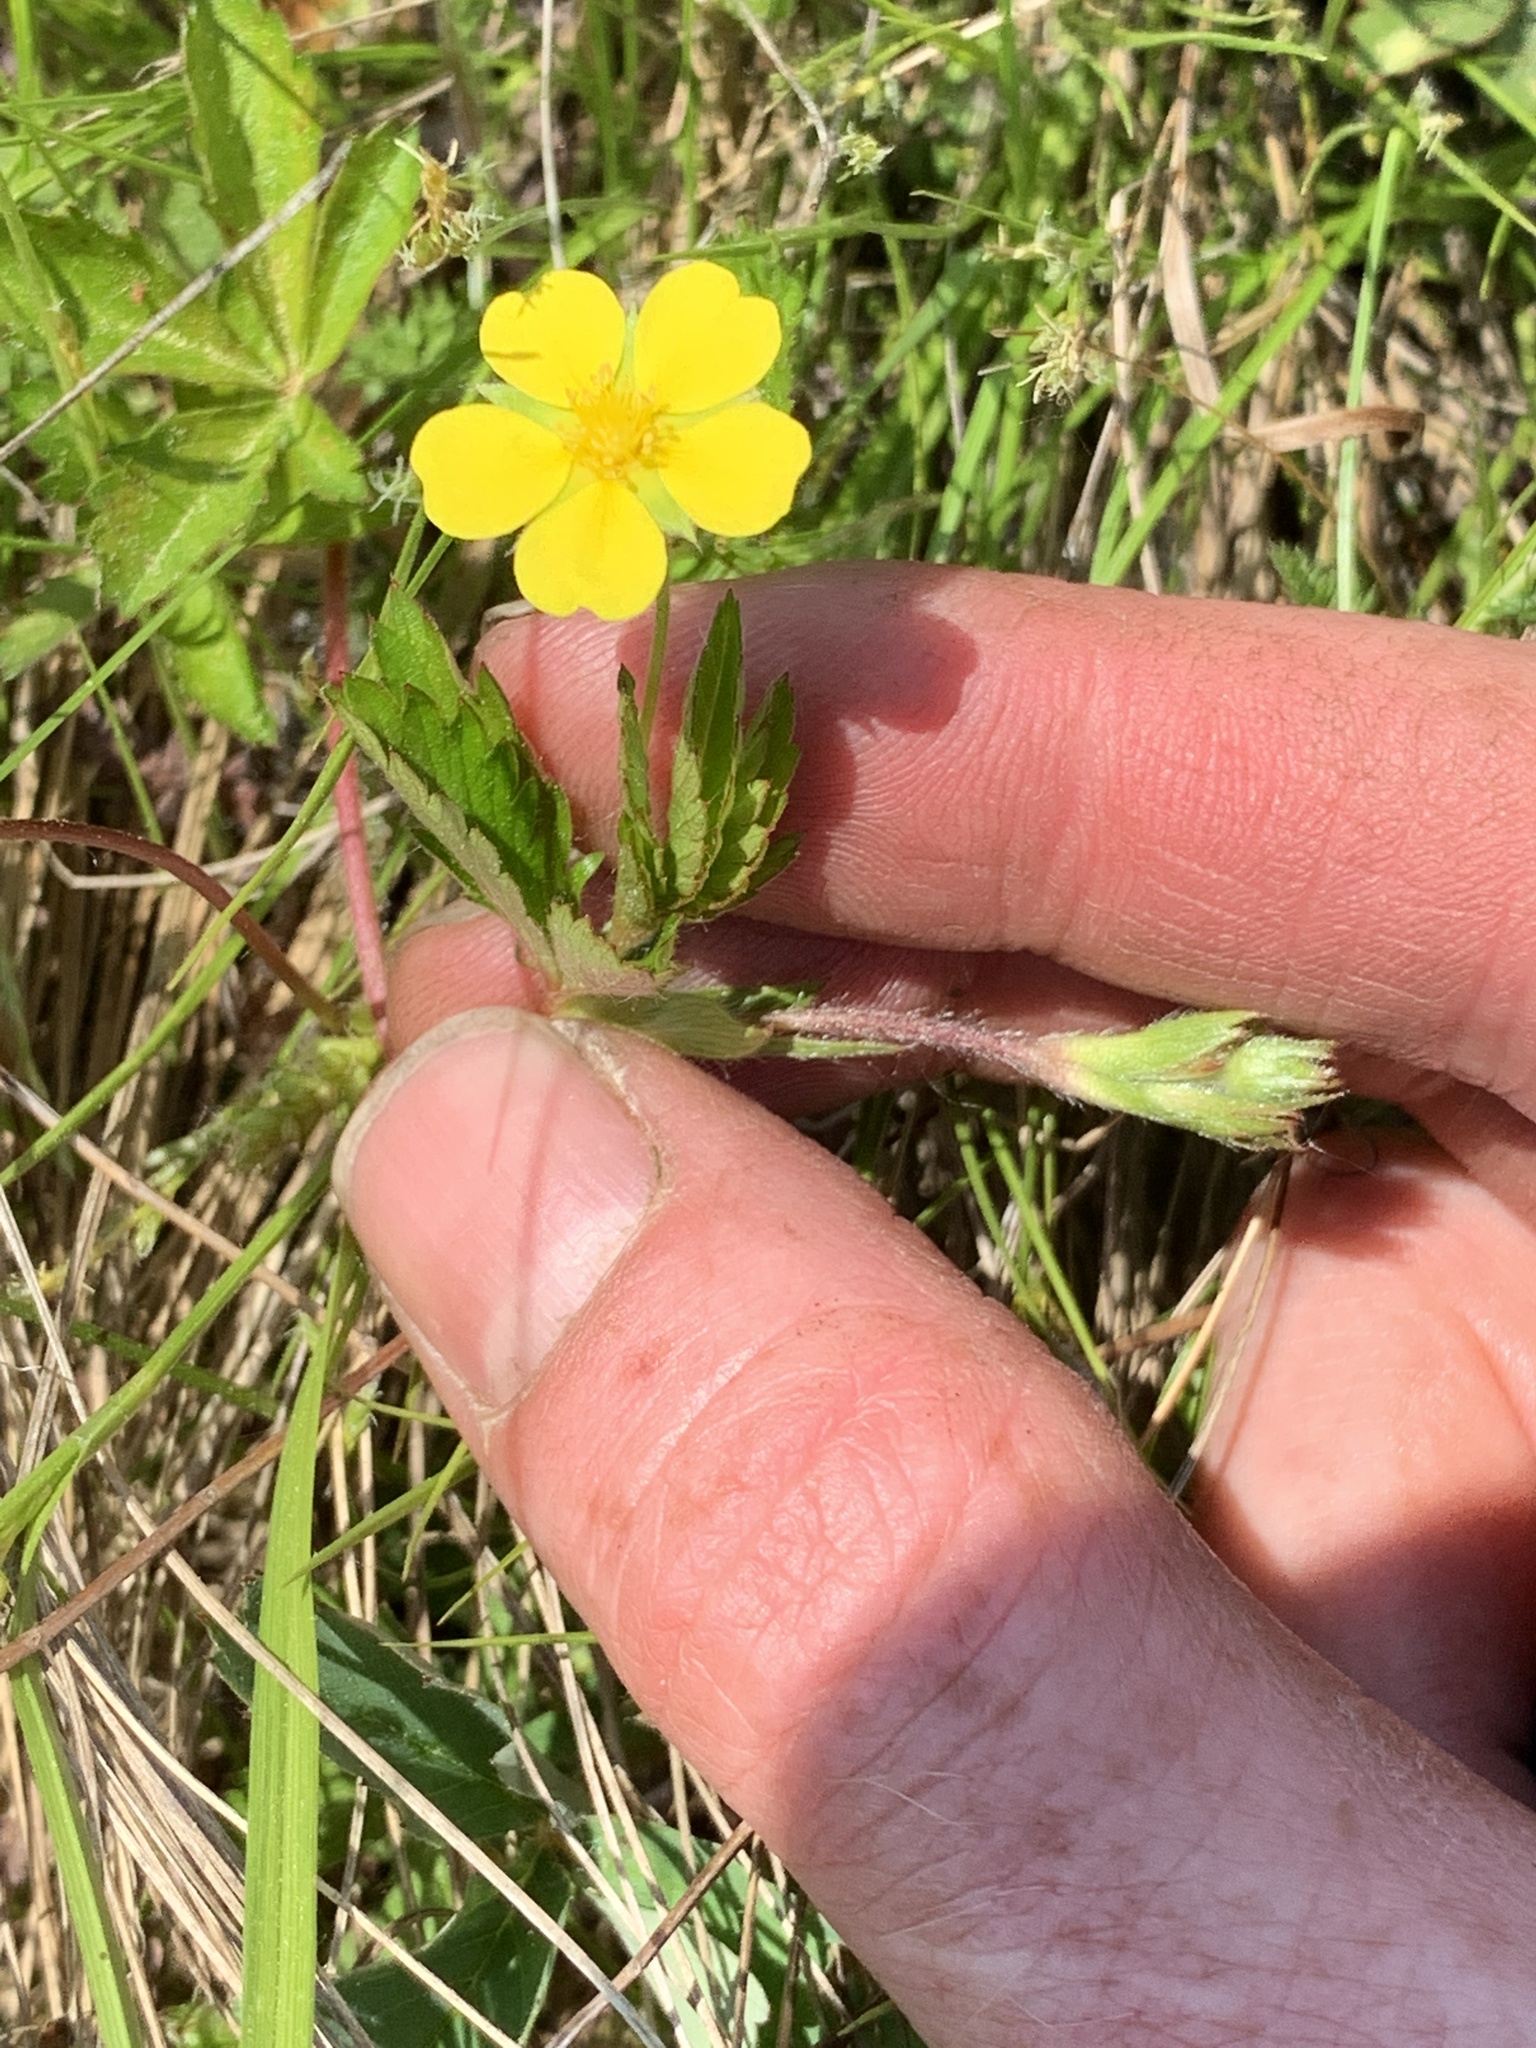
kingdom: Plantae
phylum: Tracheophyta
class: Magnoliopsida
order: Rosales
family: Rosaceae
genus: Potentilla
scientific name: Potentilla simplex
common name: Old field cinquefoil
